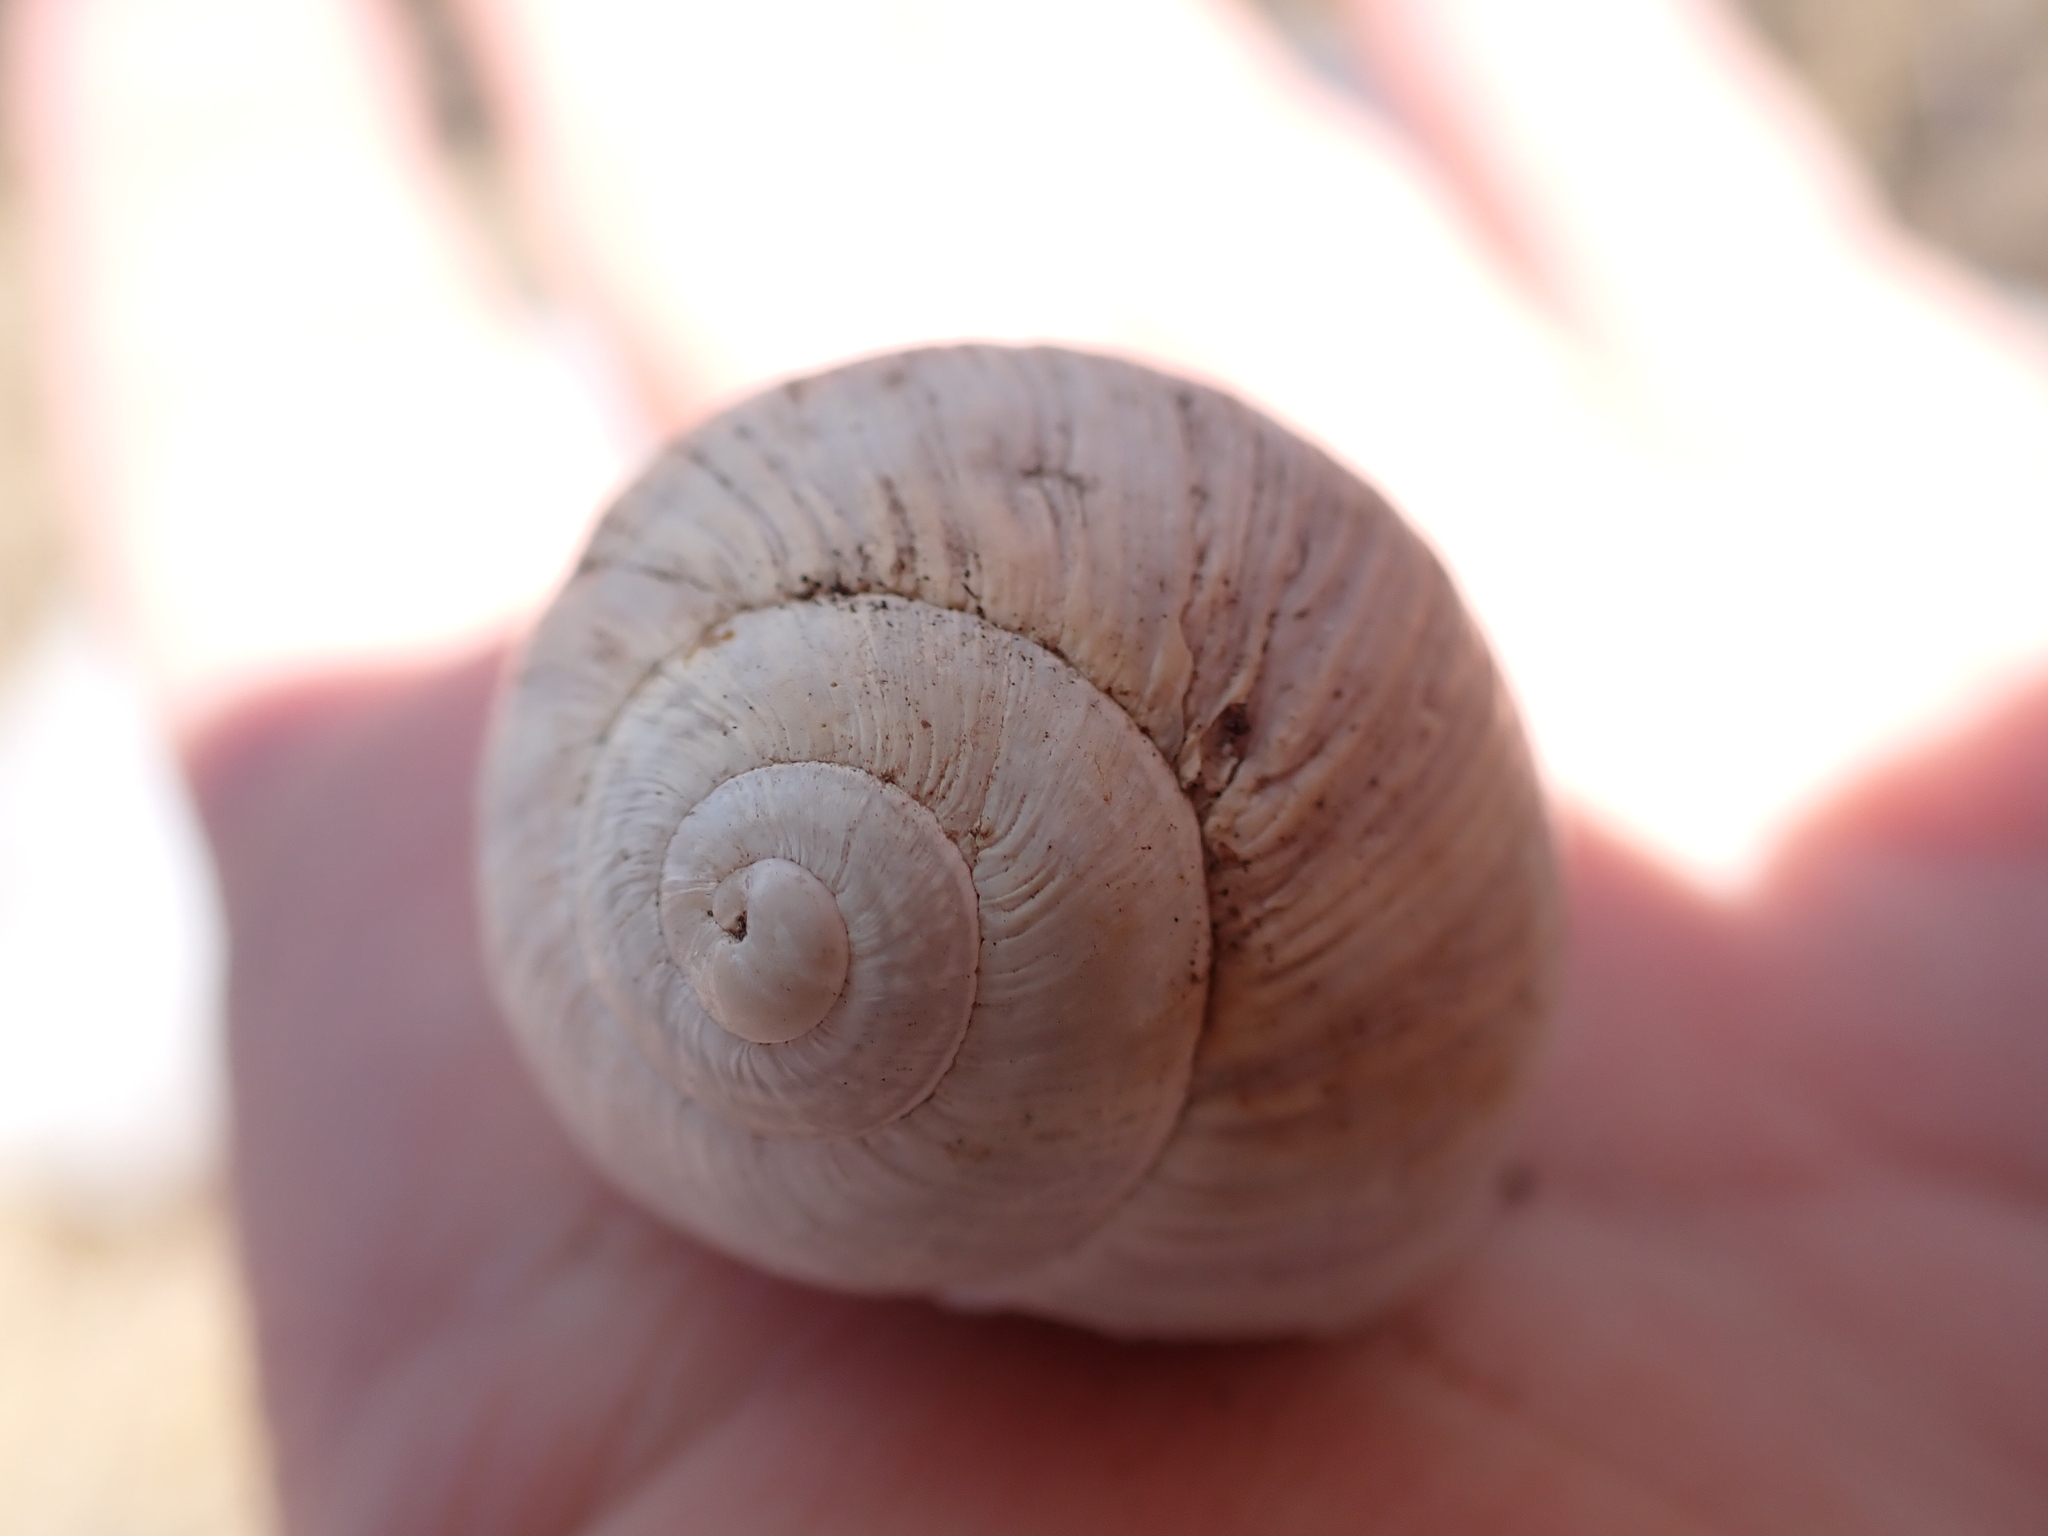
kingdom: Animalia
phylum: Mollusca
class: Gastropoda
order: Stylommatophora
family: Helicidae
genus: Helix
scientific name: Helix melanostoma
